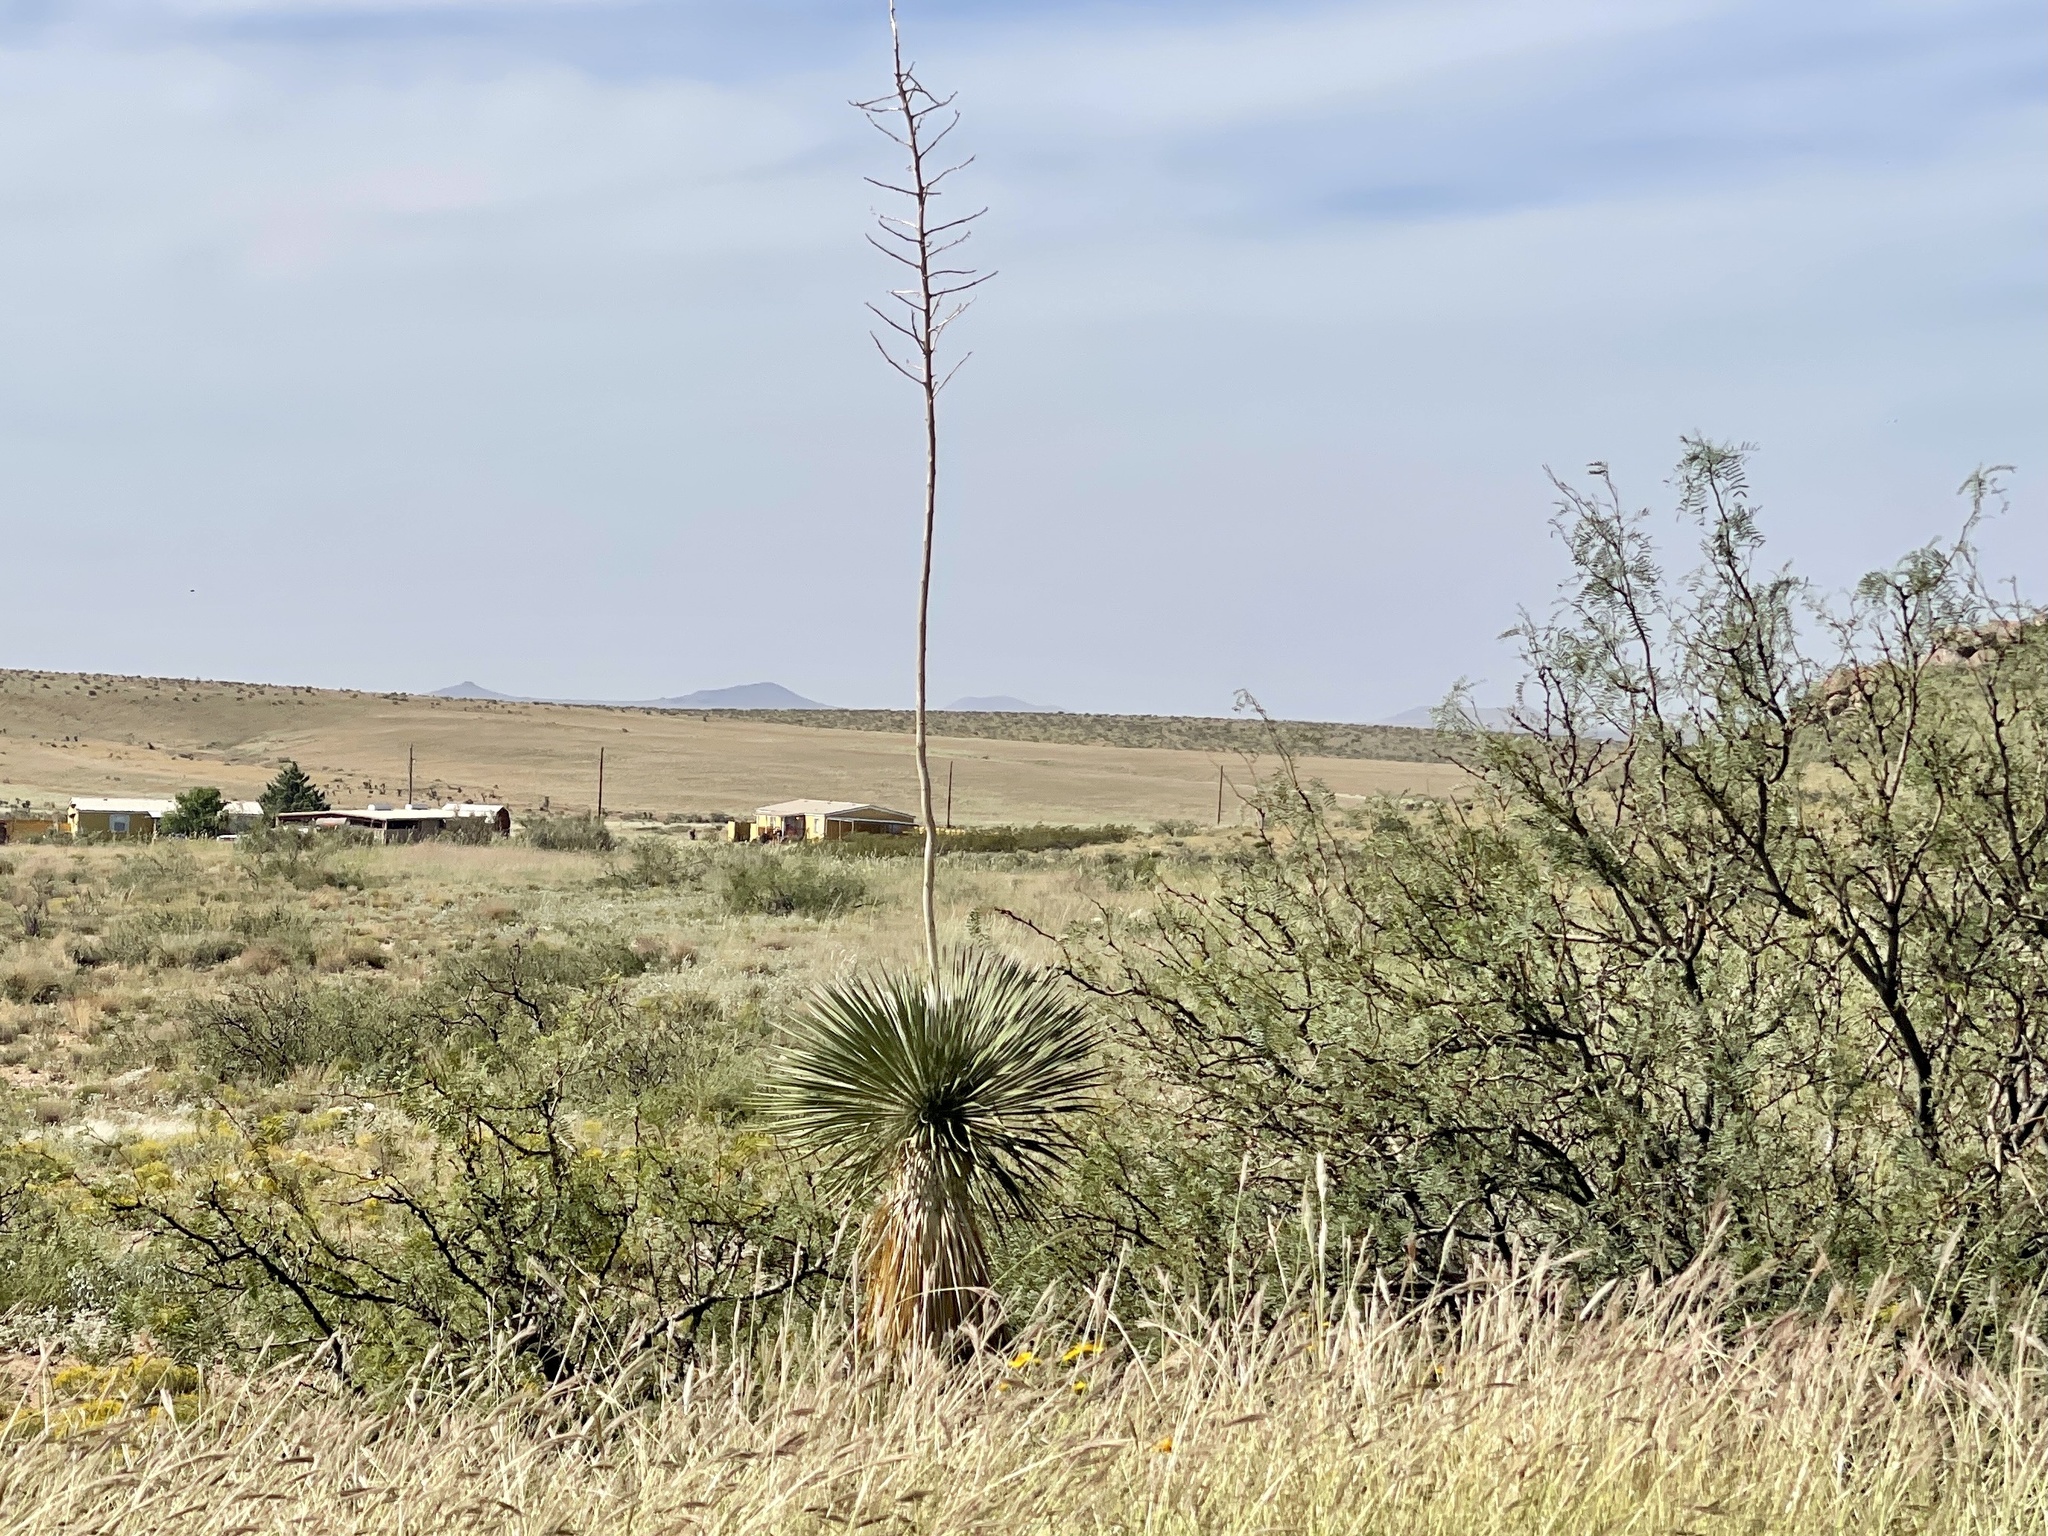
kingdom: Plantae
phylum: Tracheophyta
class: Liliopsida
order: Asparagales
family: Asparagaceae
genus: Yucca
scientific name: Yucca elata
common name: Palmella
